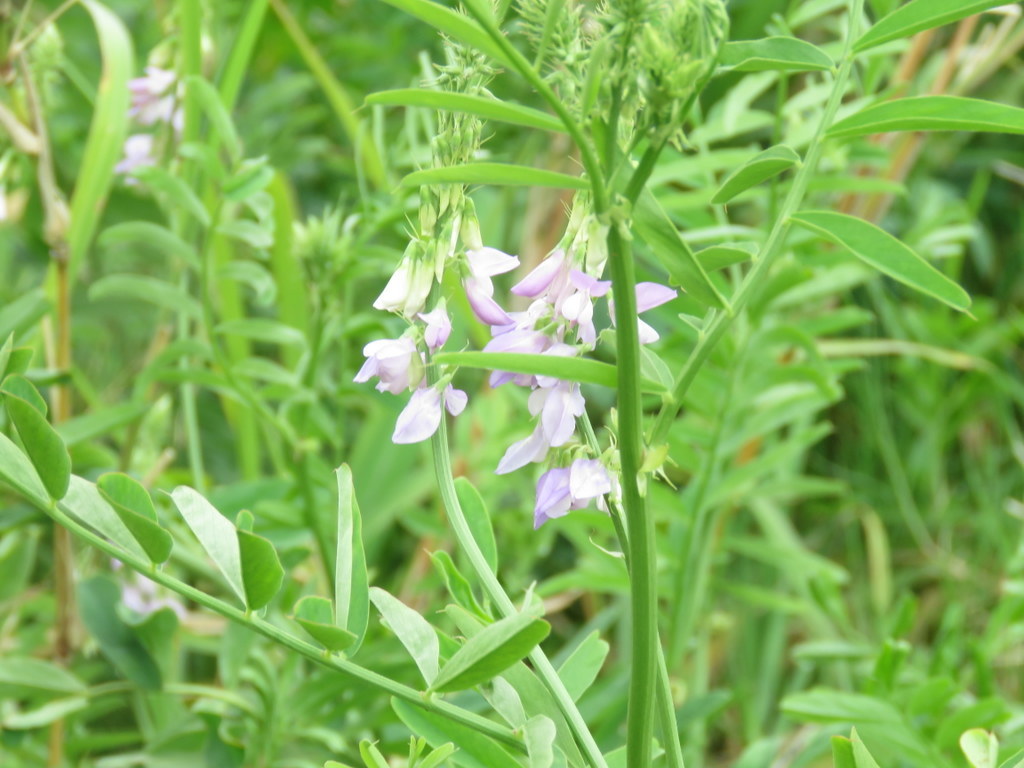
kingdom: Plantae
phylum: Tracheophyta
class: Magnoliopsida
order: Fabales
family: Fabaceae
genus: Galega
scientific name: Galega officinalis
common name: Goat's-rue
